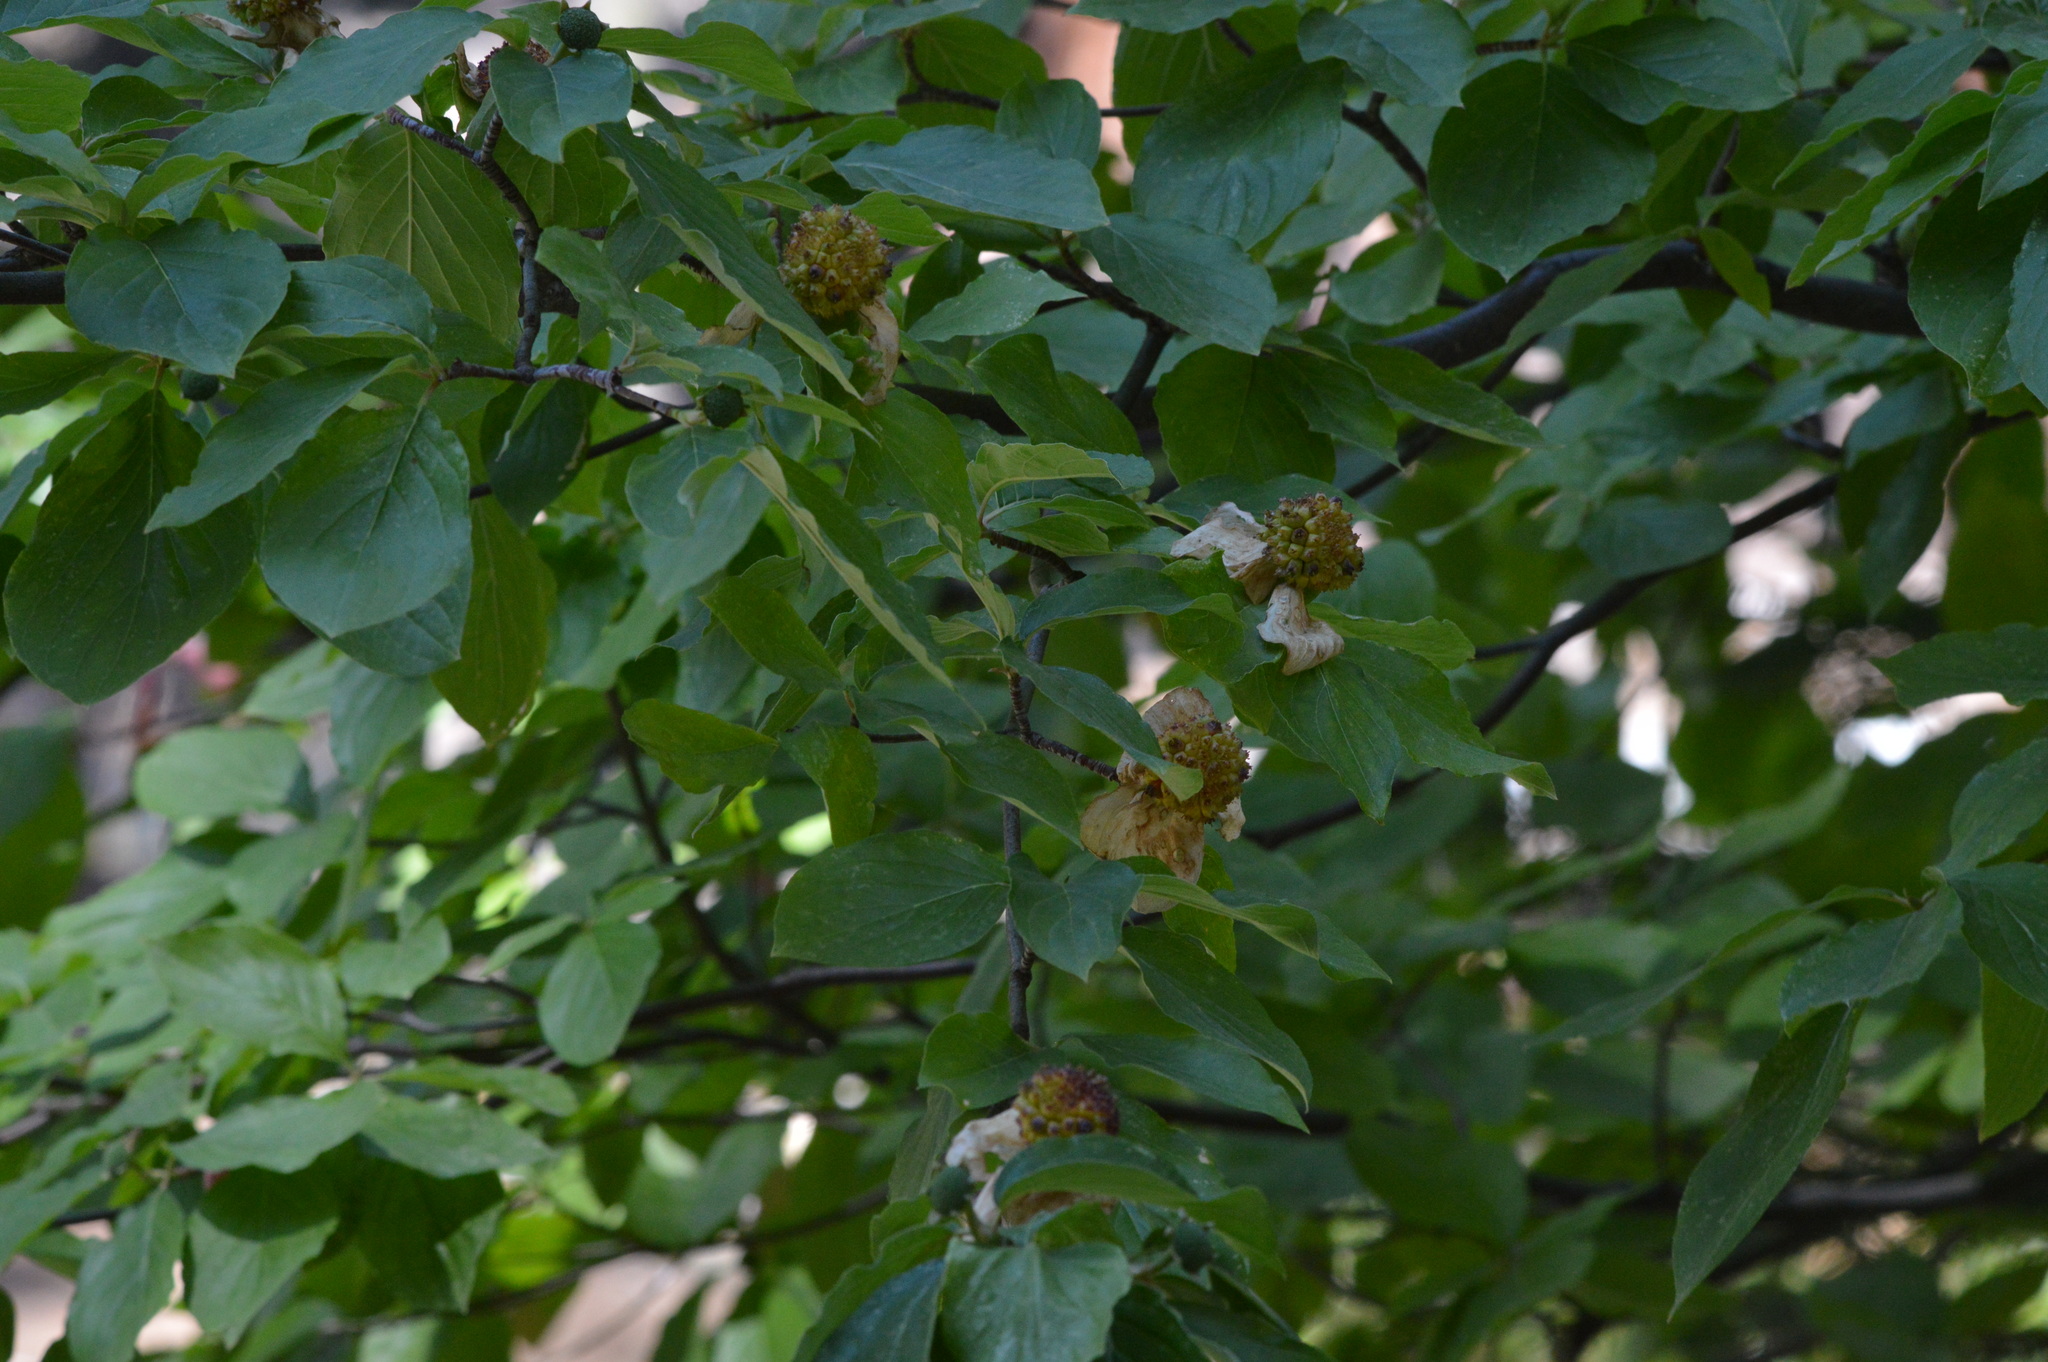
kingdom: Plantae
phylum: Tracheophyta
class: Magnoliopsida
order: Cornales
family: Cornaceae
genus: Cornus
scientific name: Cornus nuttallii
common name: Pacific dogwood
